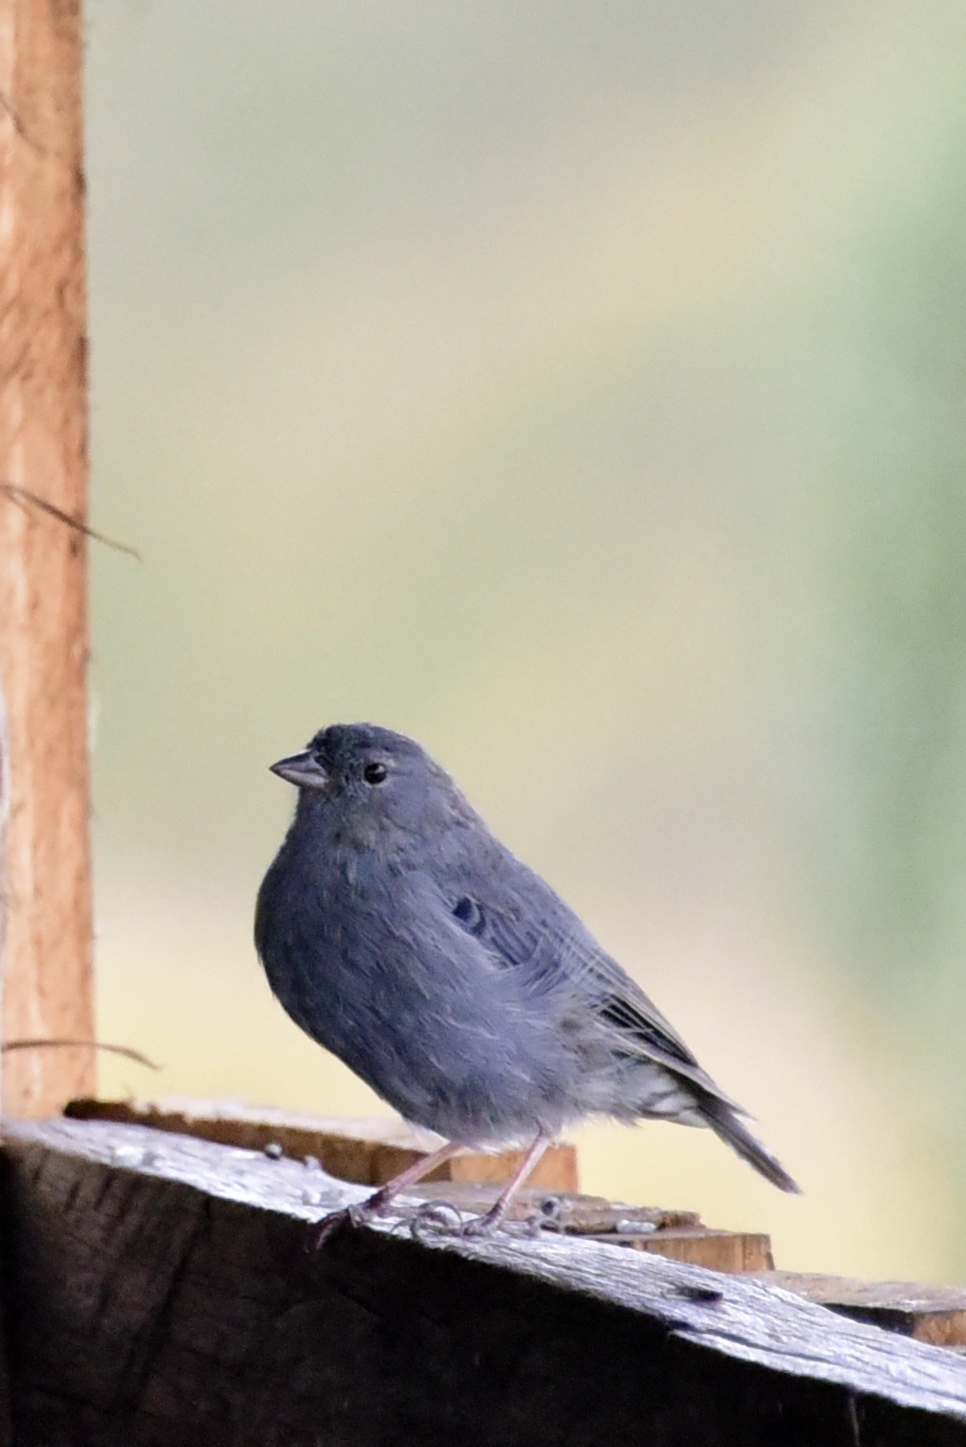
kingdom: Animalia
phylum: Chordata
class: Aves
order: Passeriformes
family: Thraupidae
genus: Geospizopsis
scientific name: Geospizopsis unicolor
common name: Plumbeous sierra-finch
